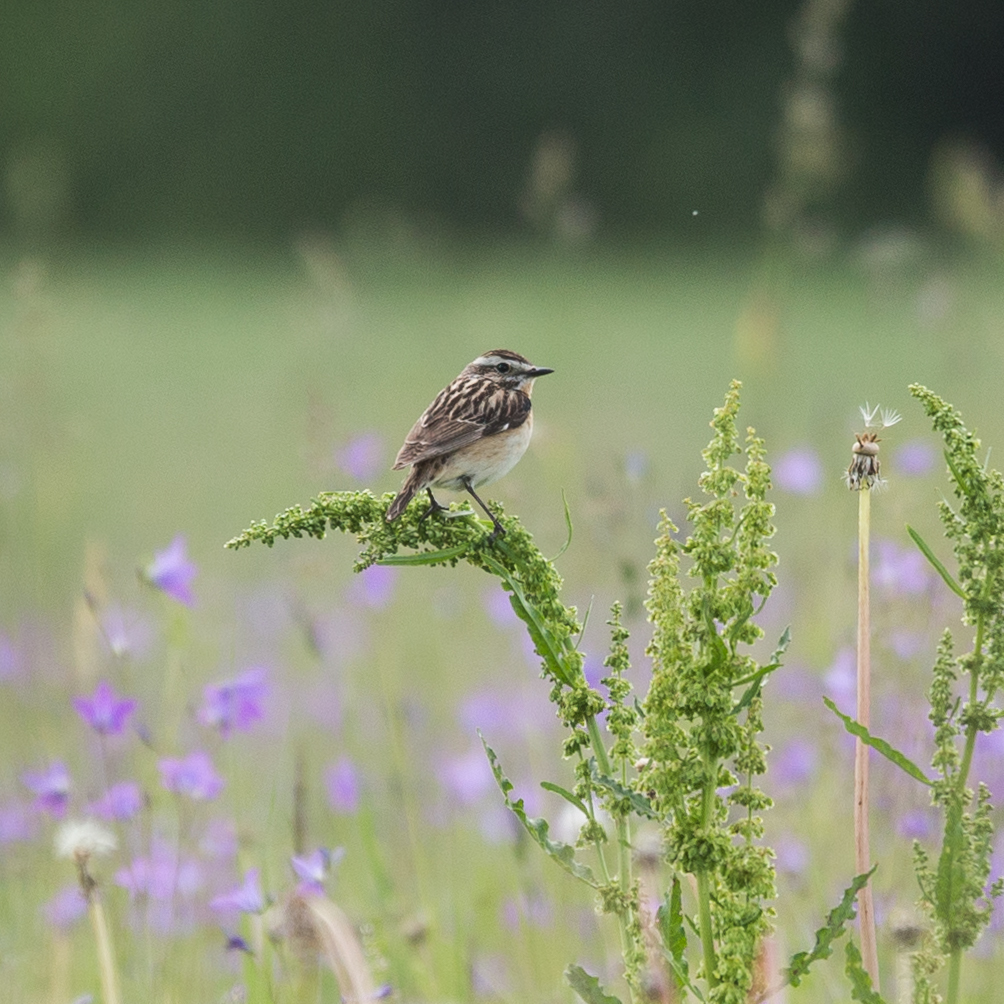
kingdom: Animalia
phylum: Chordata
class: Aves
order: Passeriformes
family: Muscicapidae
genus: Saxicola
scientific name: Saxicola rubetra
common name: Whinchat
